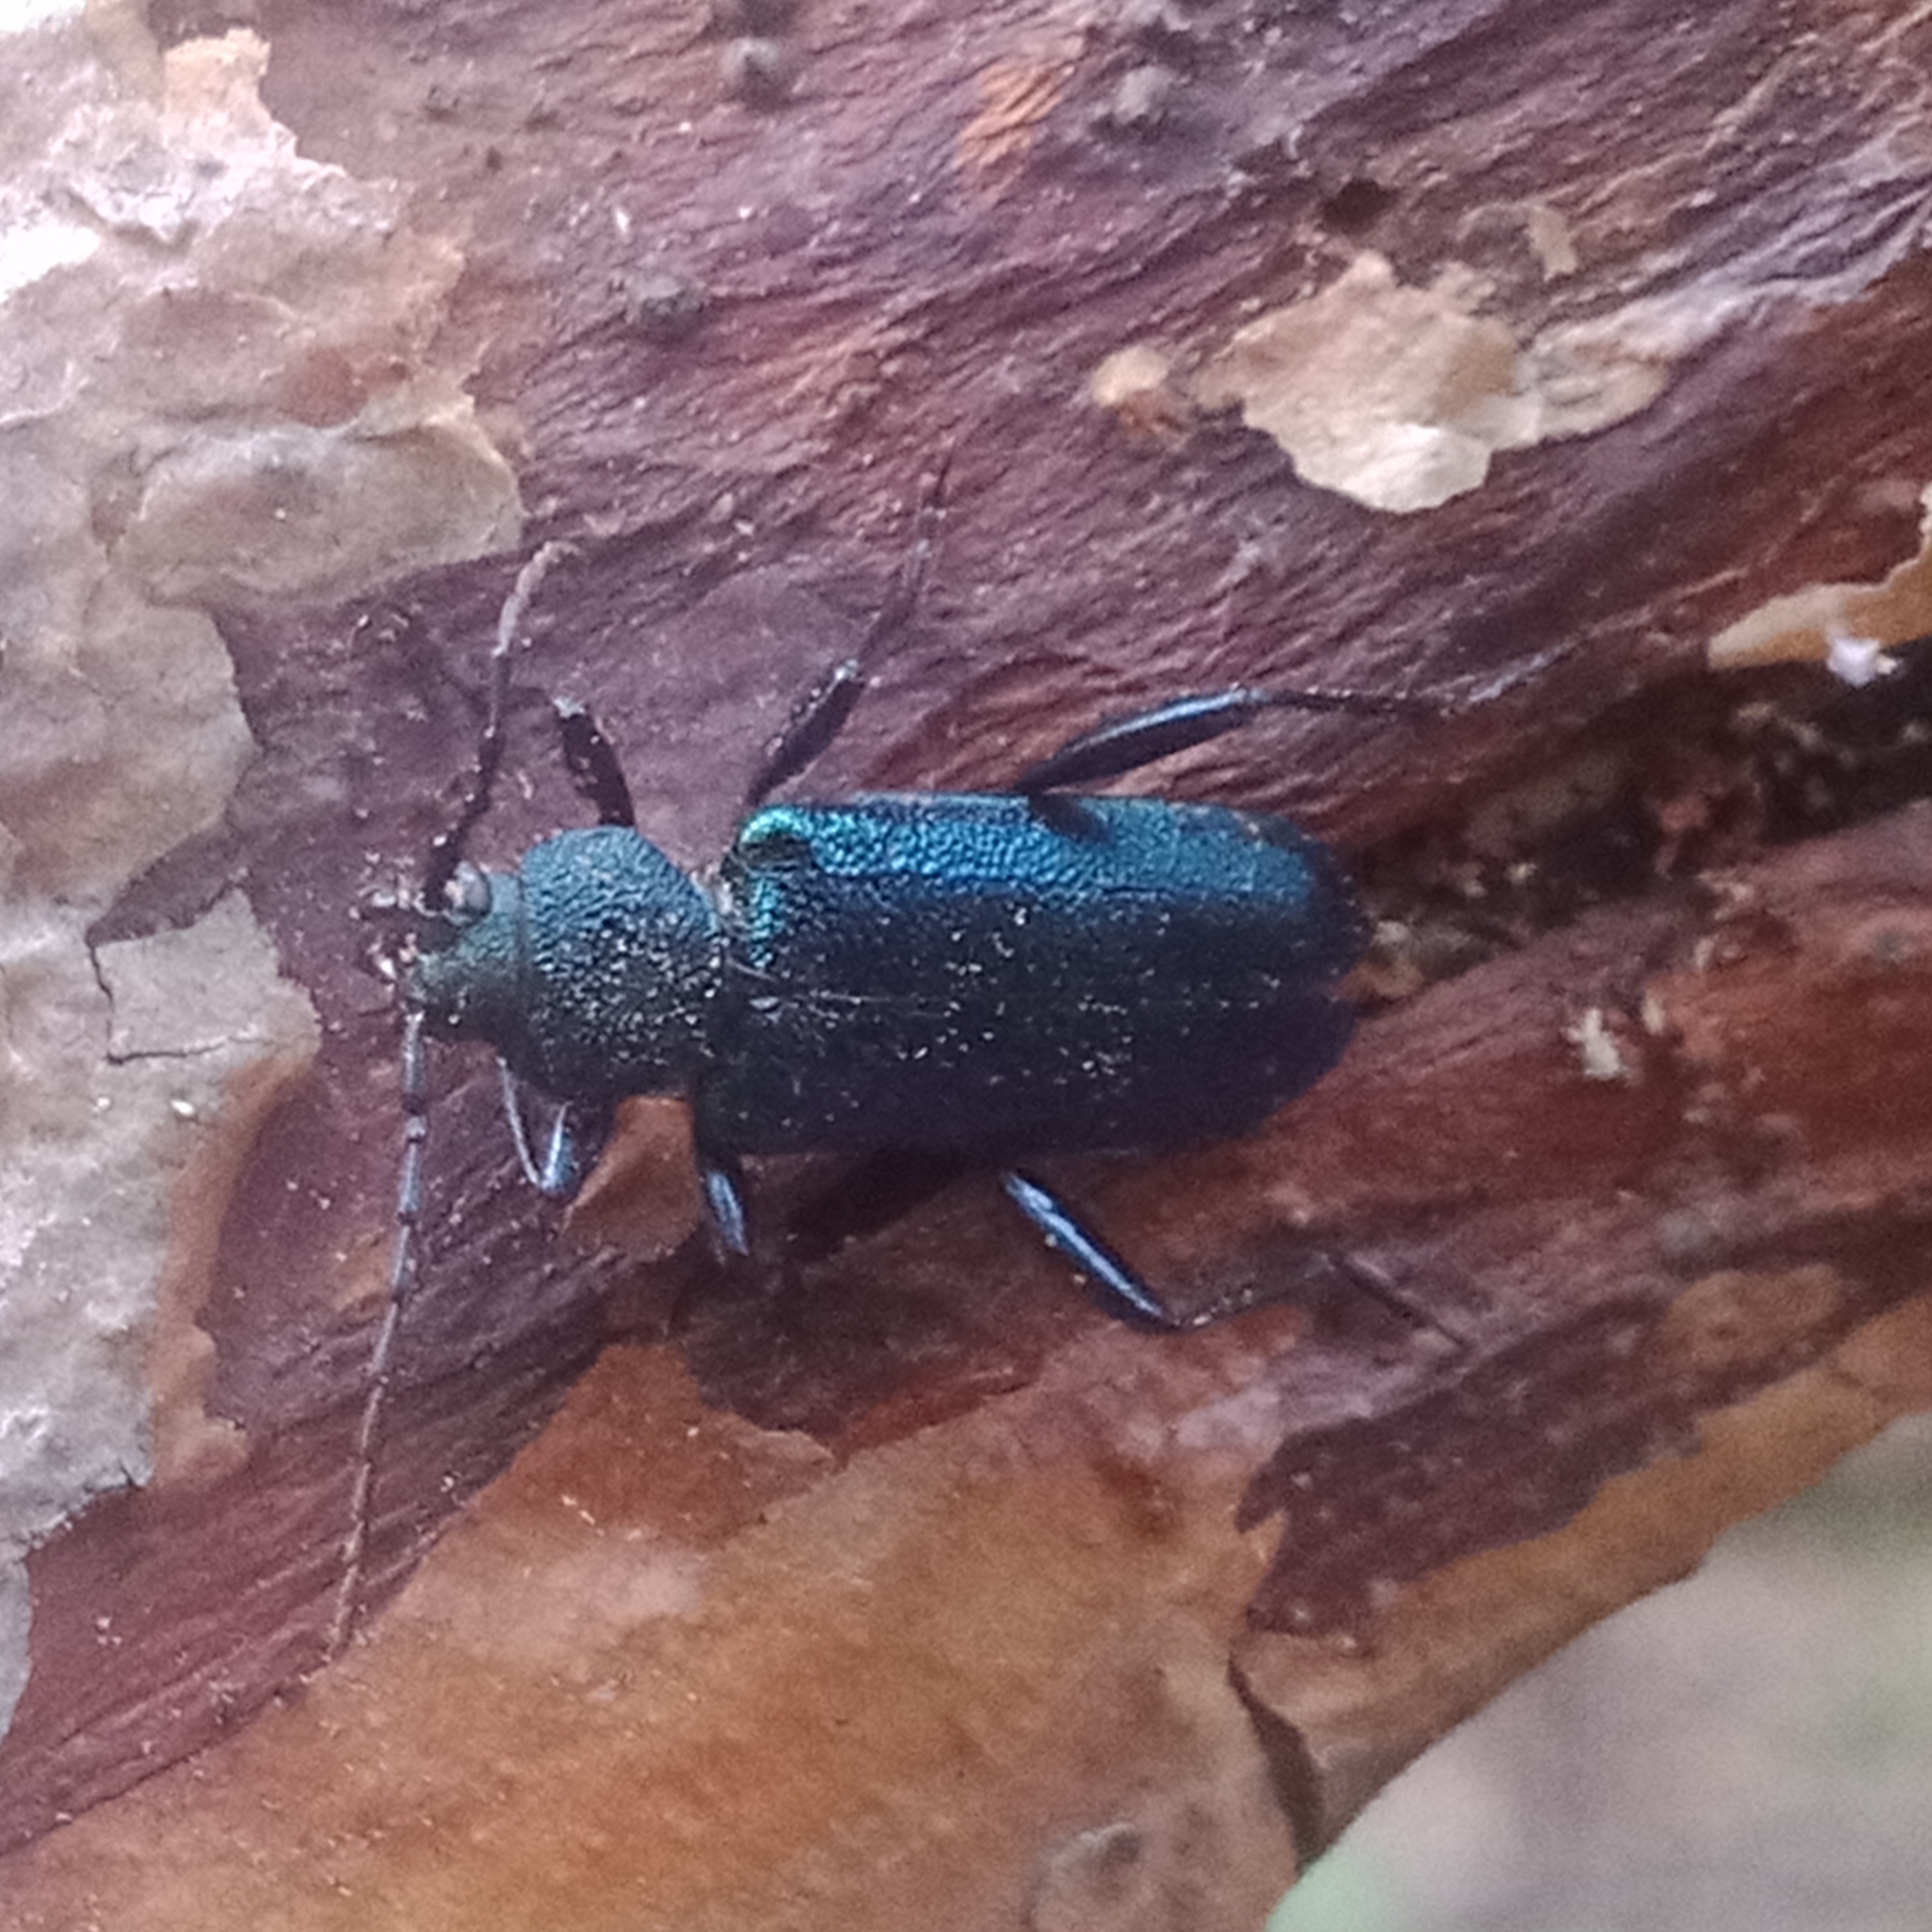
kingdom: Animalia
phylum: Arthropoda
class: Insecta
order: Coleoptera
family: Cerambycidae
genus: Callidium
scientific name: Callidium violaceum
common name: Violet tanbark beetle
